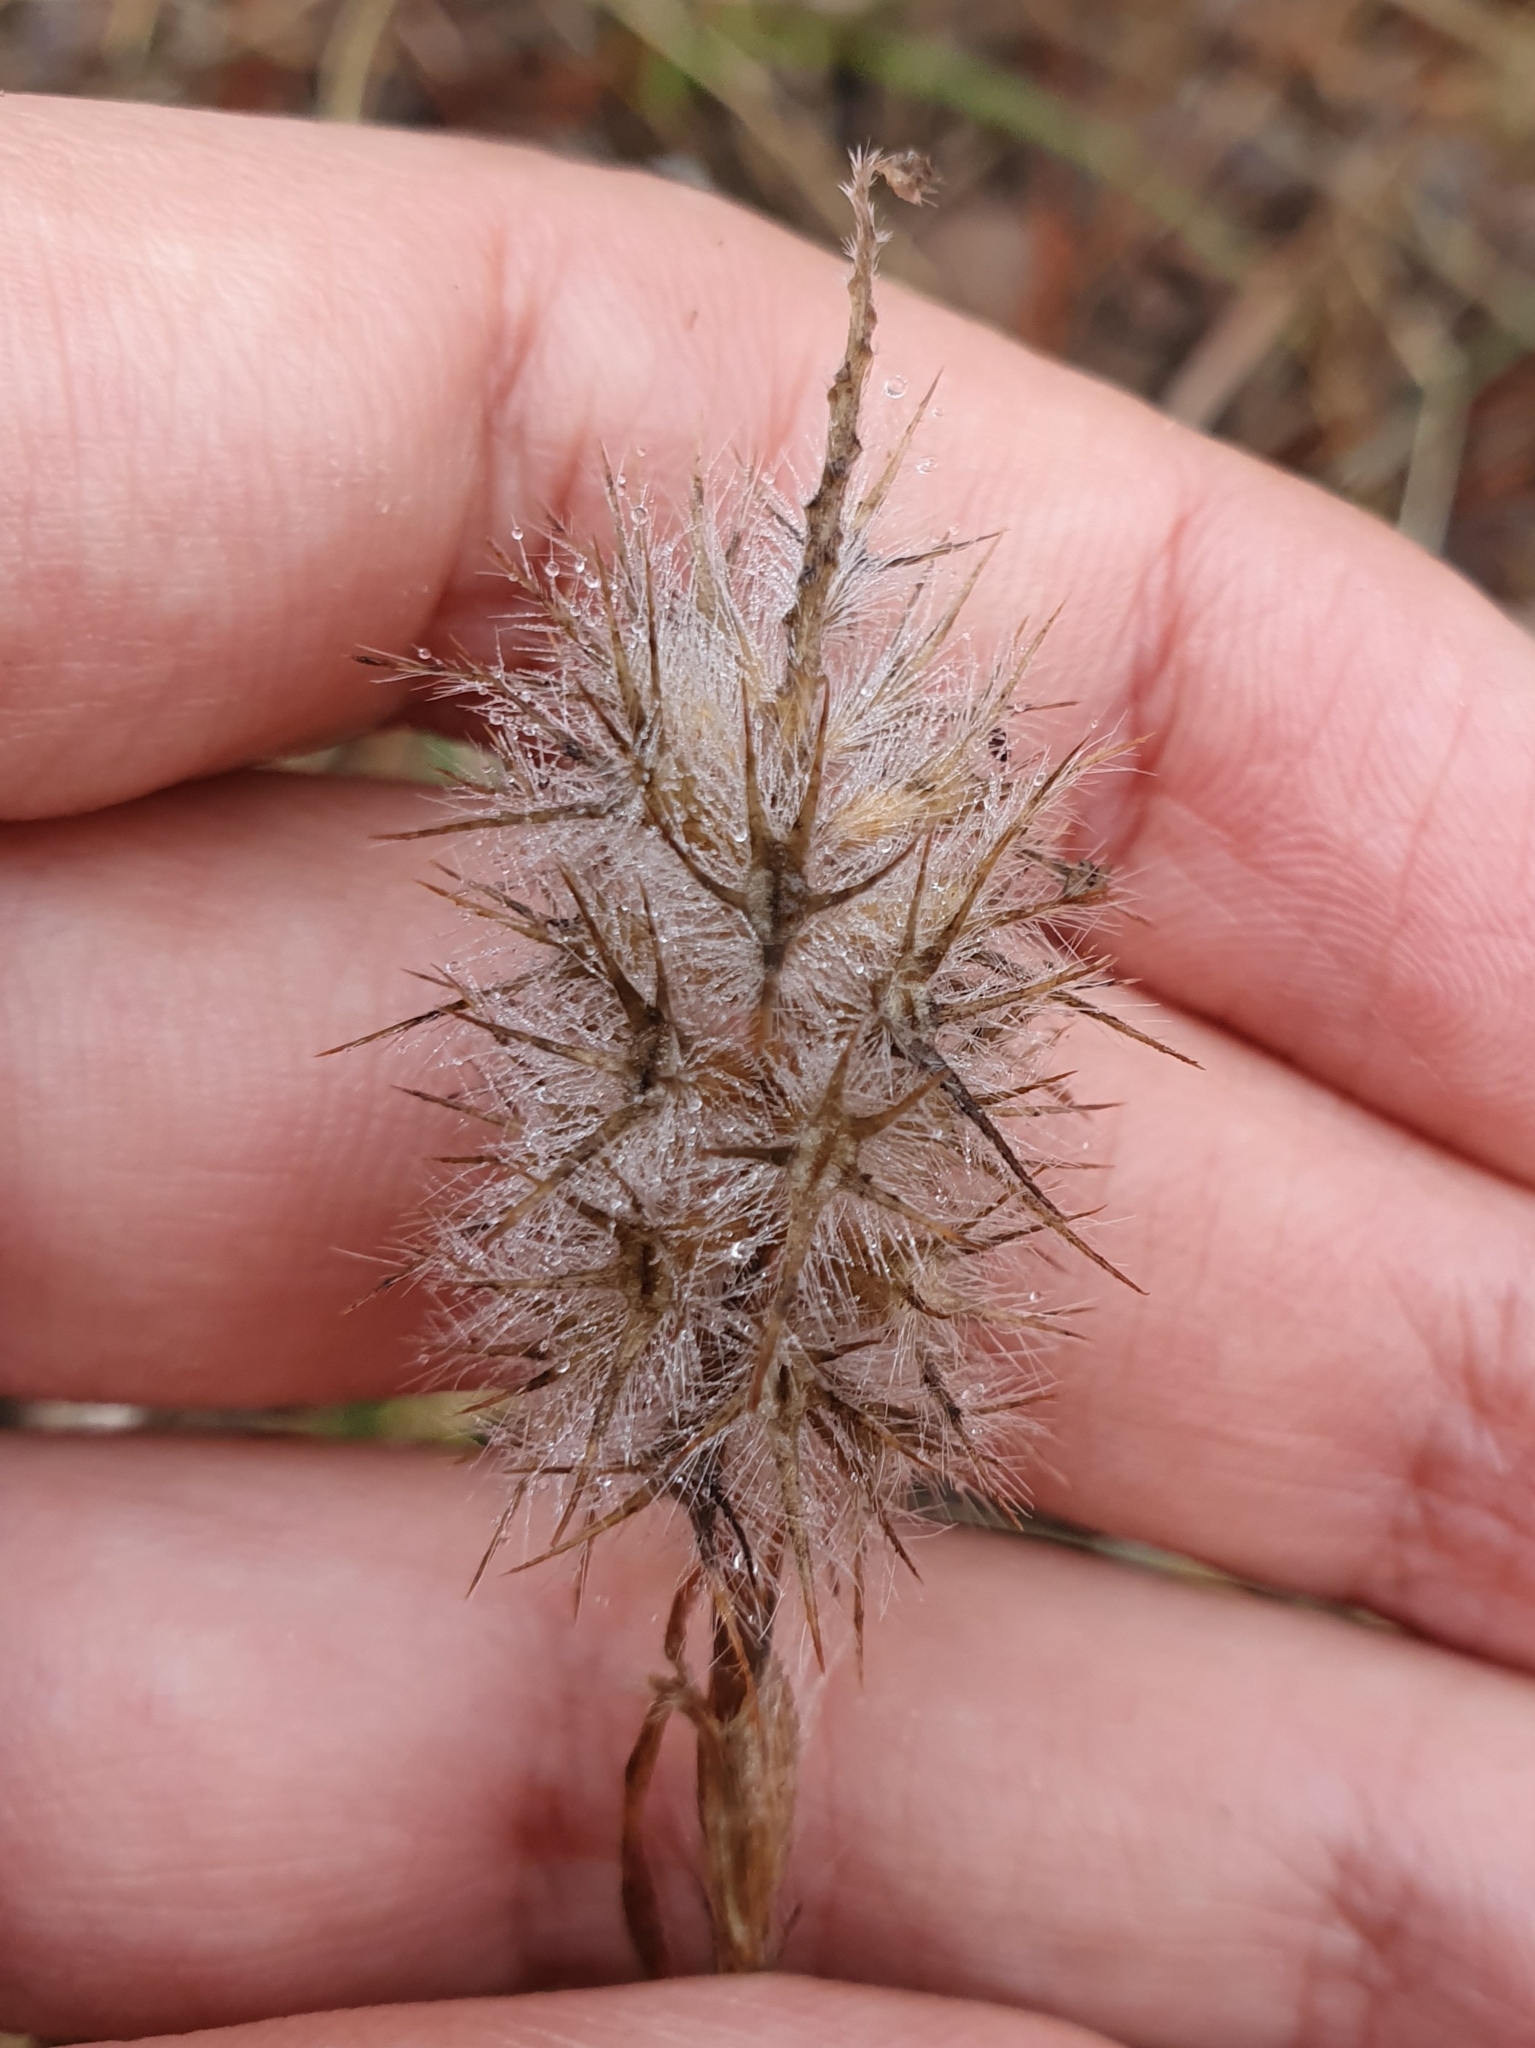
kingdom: Plantae
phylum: Tracheophyta
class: Magnoliopsida
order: Fabales
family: Fabaceae
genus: Trifolium
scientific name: Trifolium angustifolium
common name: Narrow clover
